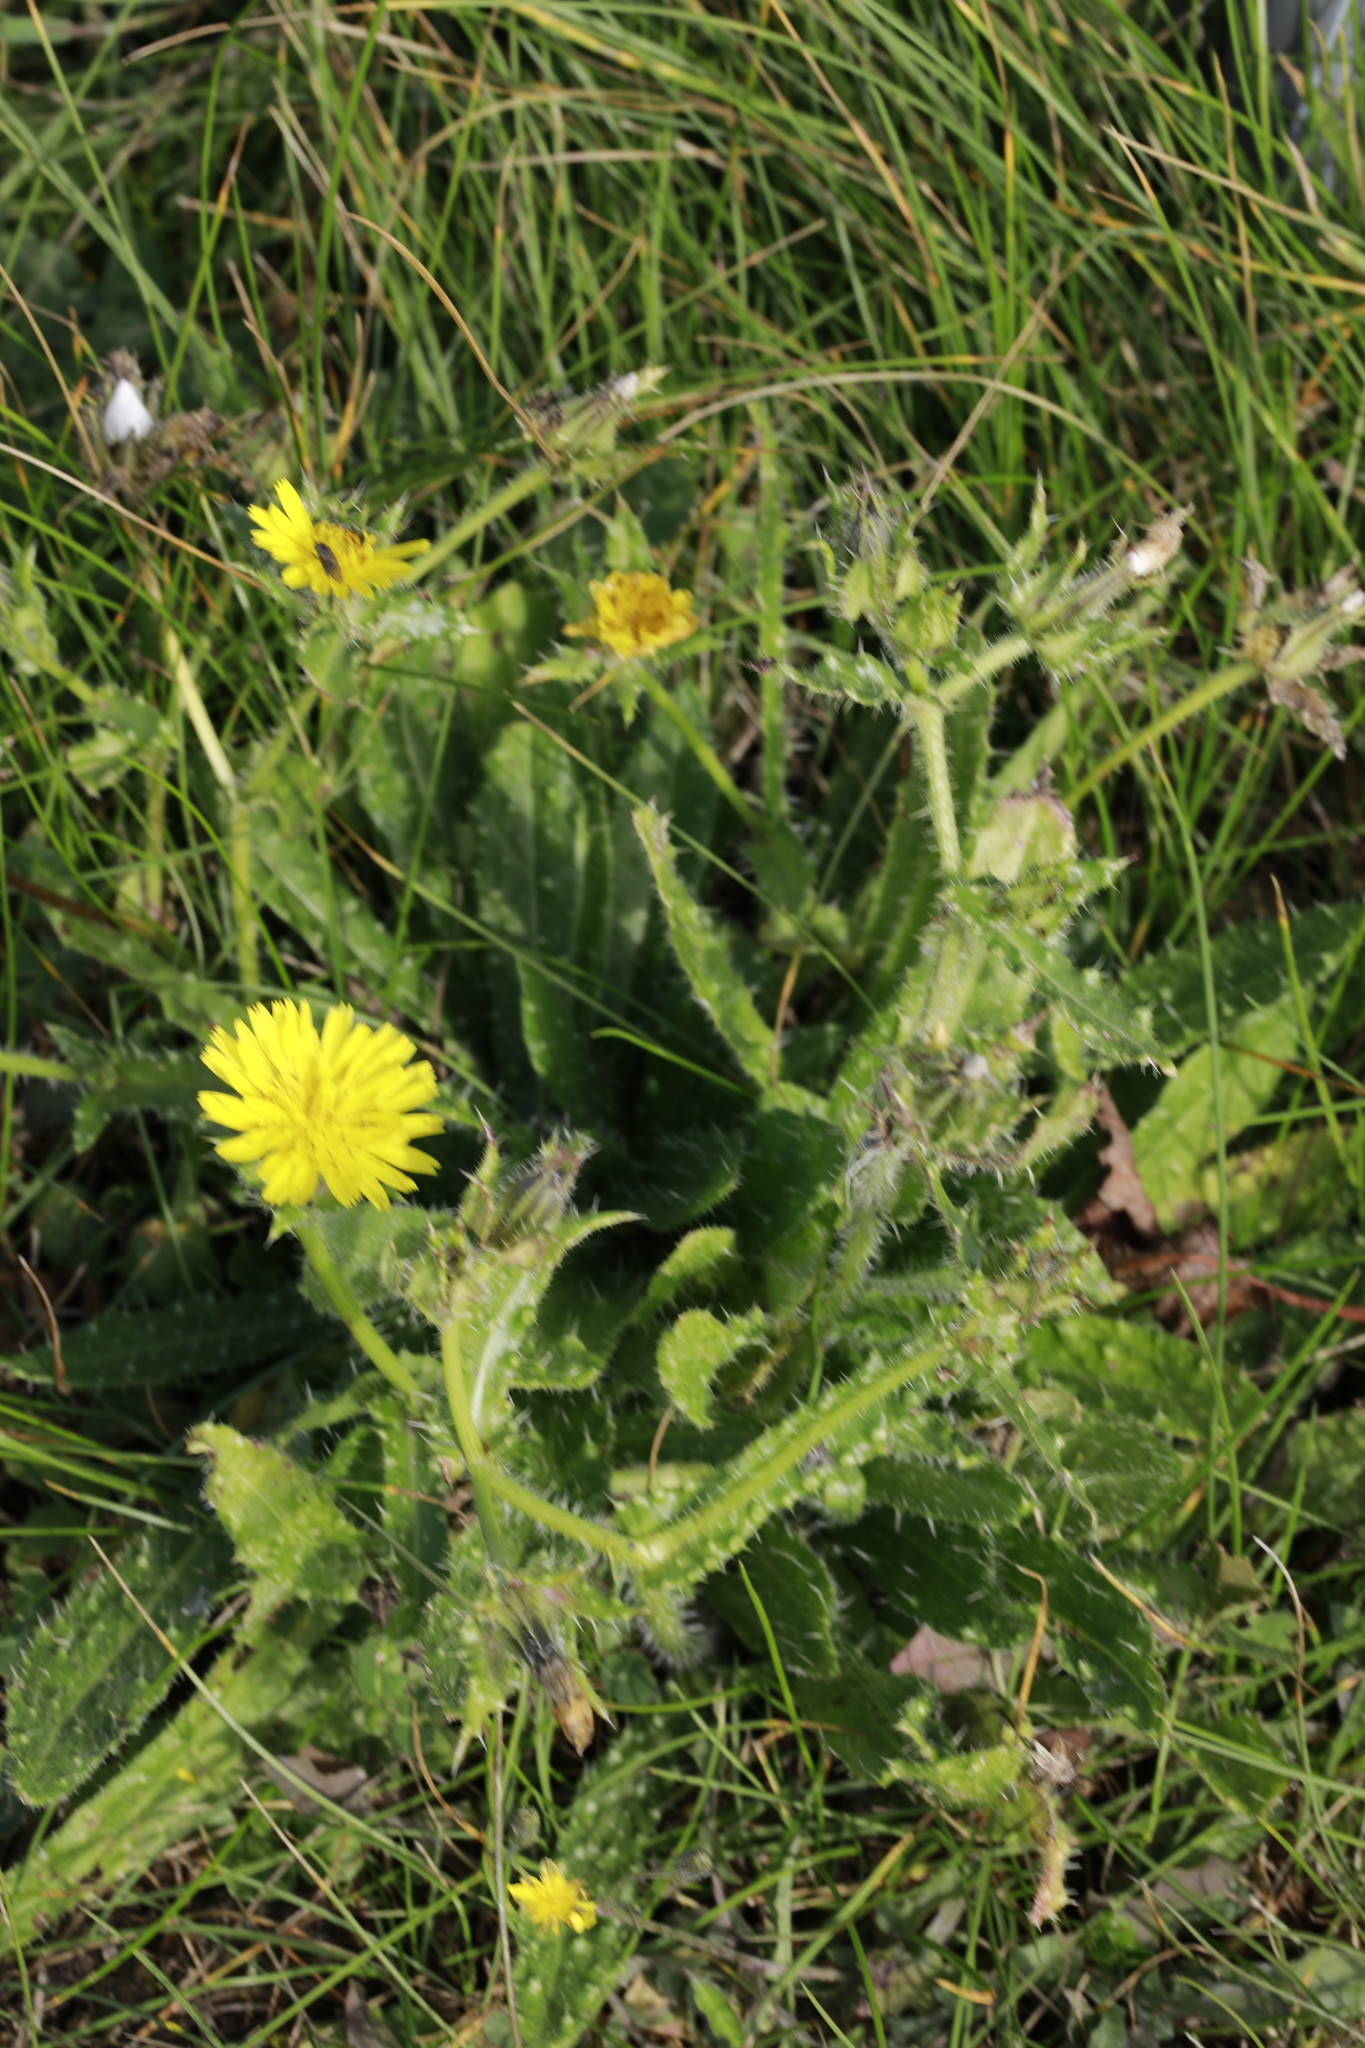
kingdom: Plantae
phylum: Tracheophyta
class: Magnoliopsida
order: Asterales
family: Asteraceae
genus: Helminthotheca
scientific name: Helminthotheca echioides
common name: Ox-tongue
